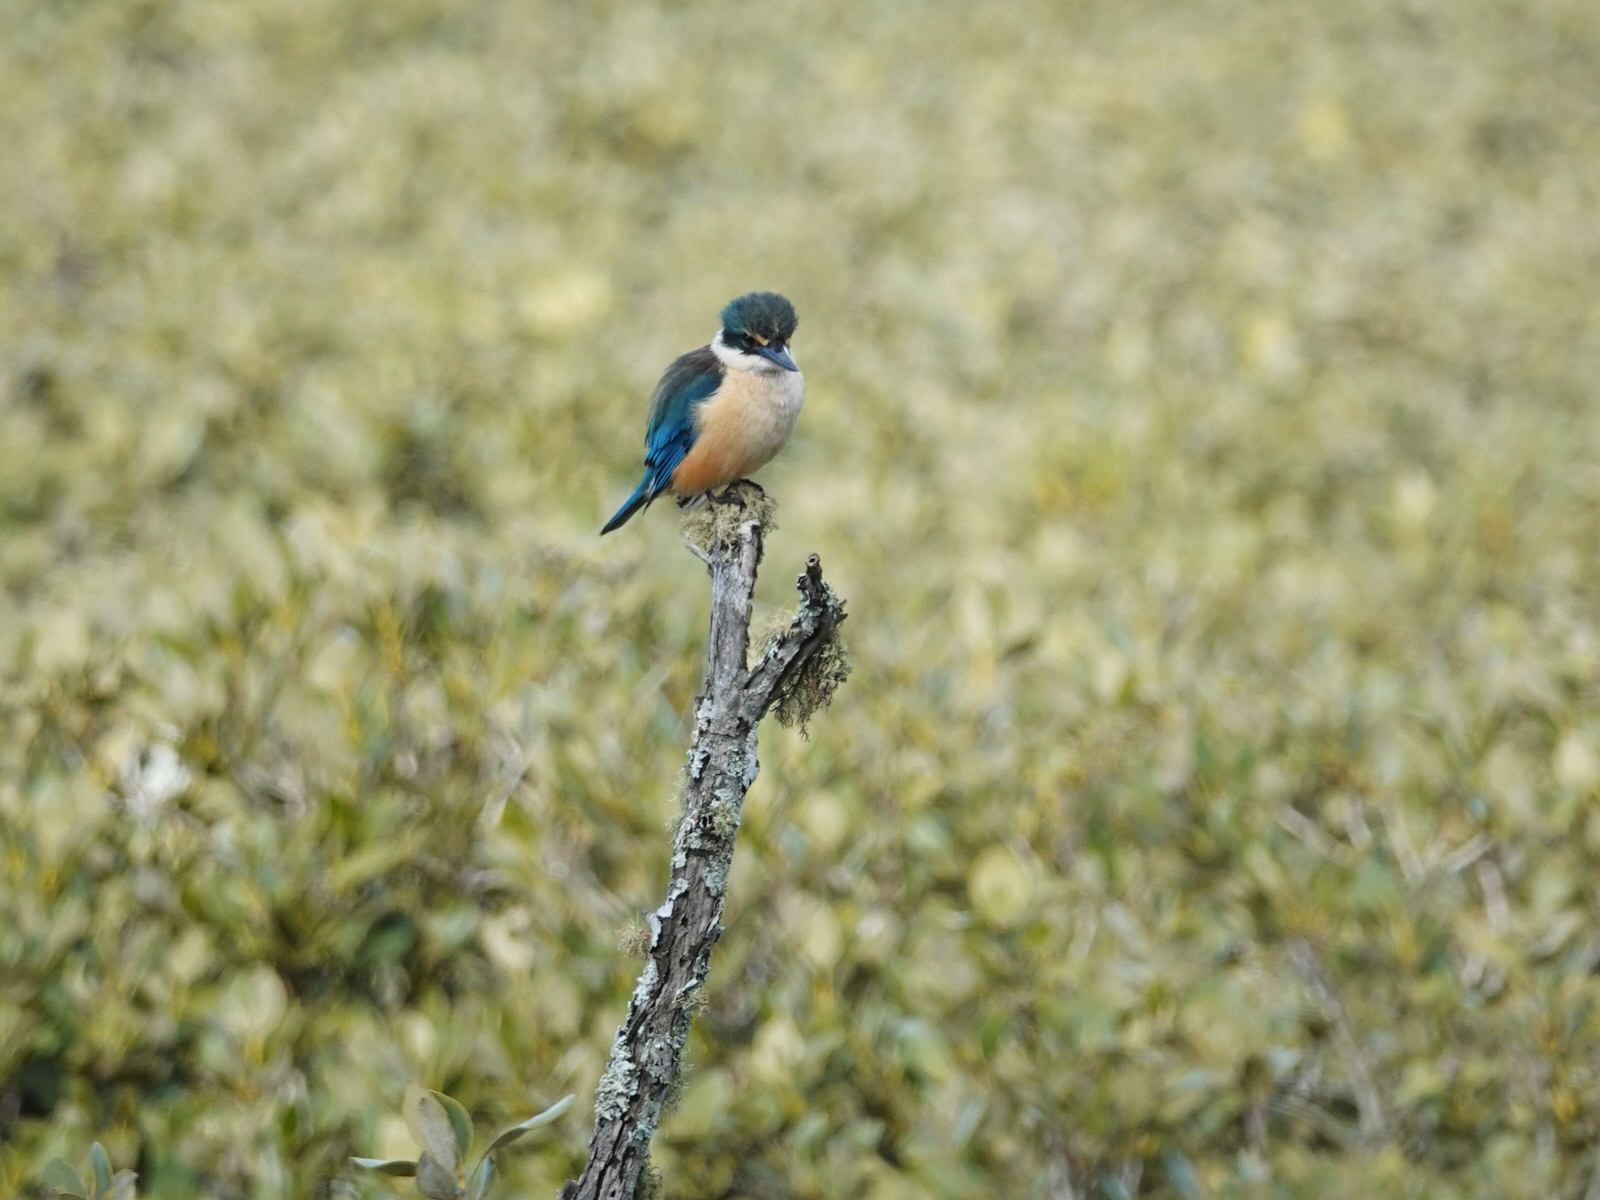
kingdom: Animalia
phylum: Chordata
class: Aves
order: Coraciiformes
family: Alcedinidae
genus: Todiramphus
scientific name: Todiramphus sanctus
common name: Sacred kingfisher
